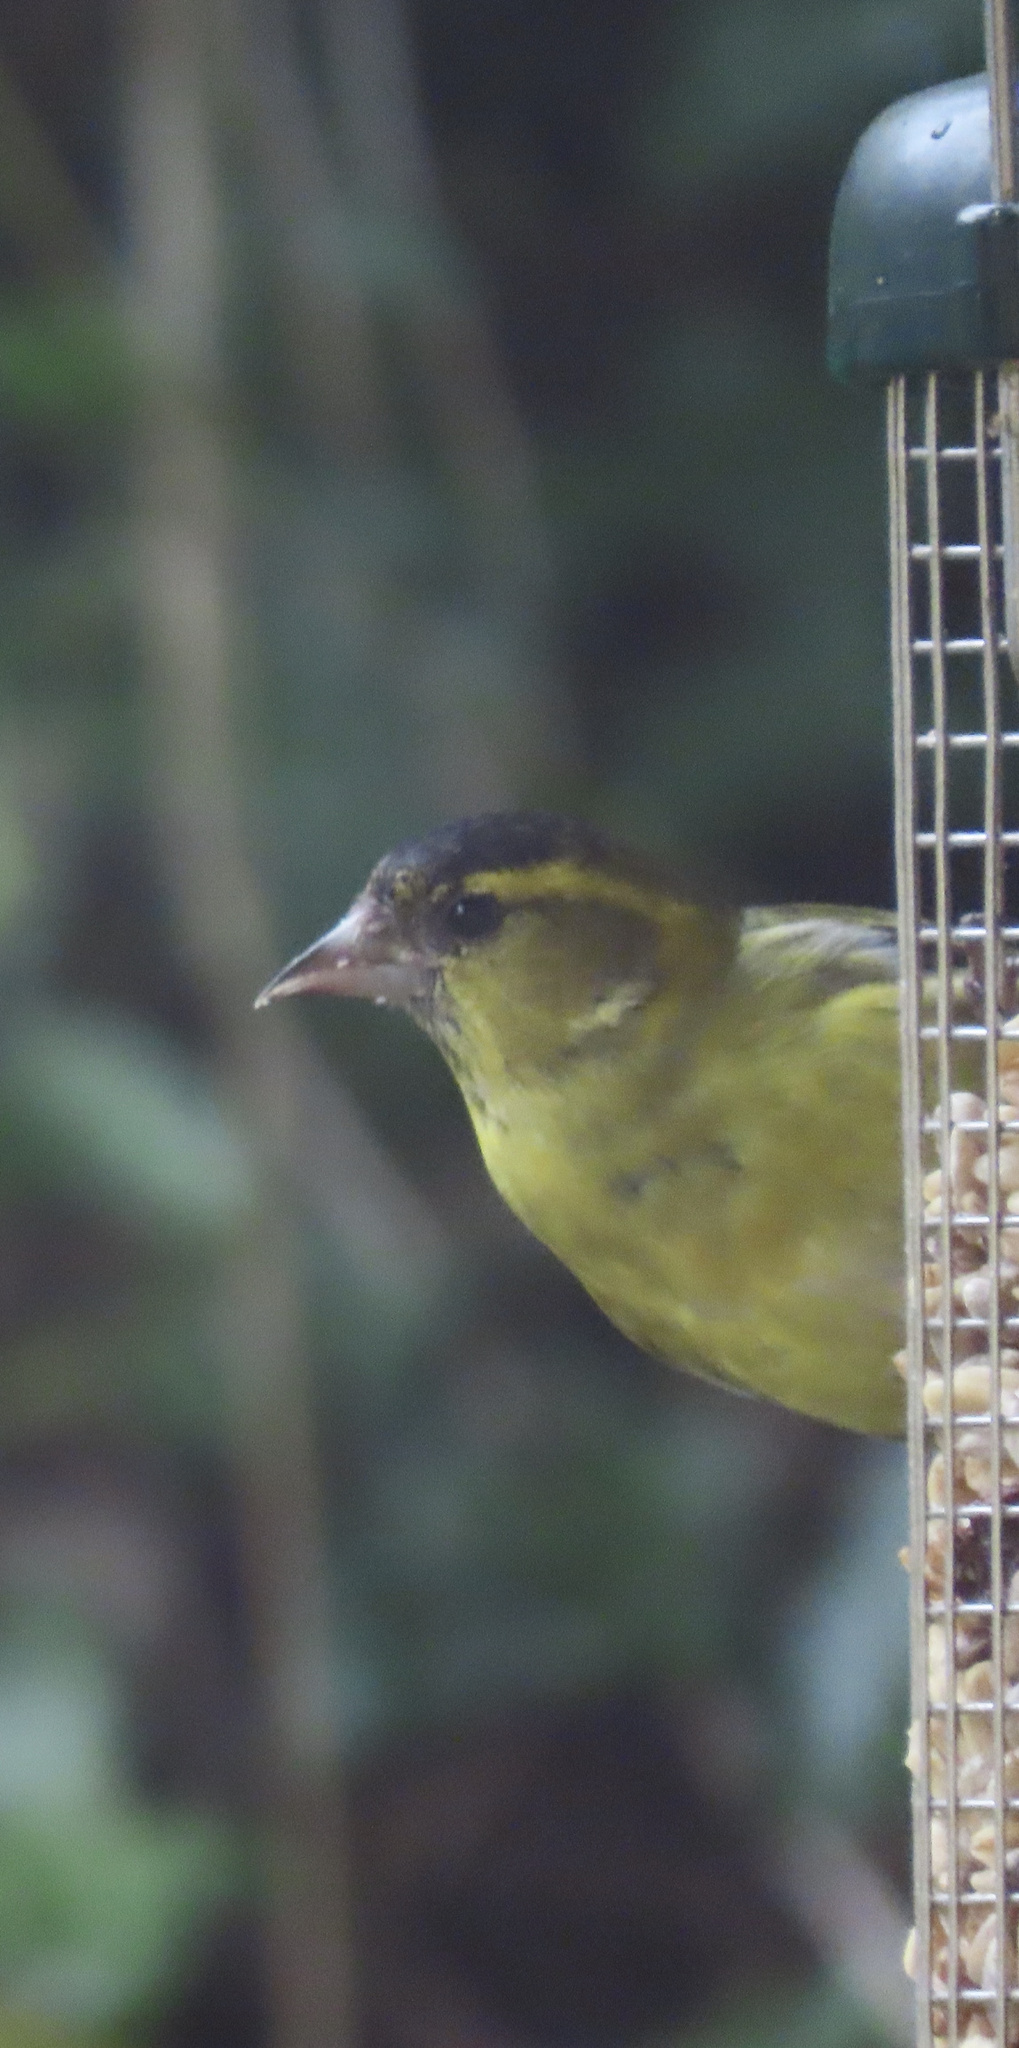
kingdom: Animalia
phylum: Chordata
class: Aves
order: Passeriformes
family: Fringillidae
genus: Spinus
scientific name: Spinus spinus
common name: Eurasian siskin
